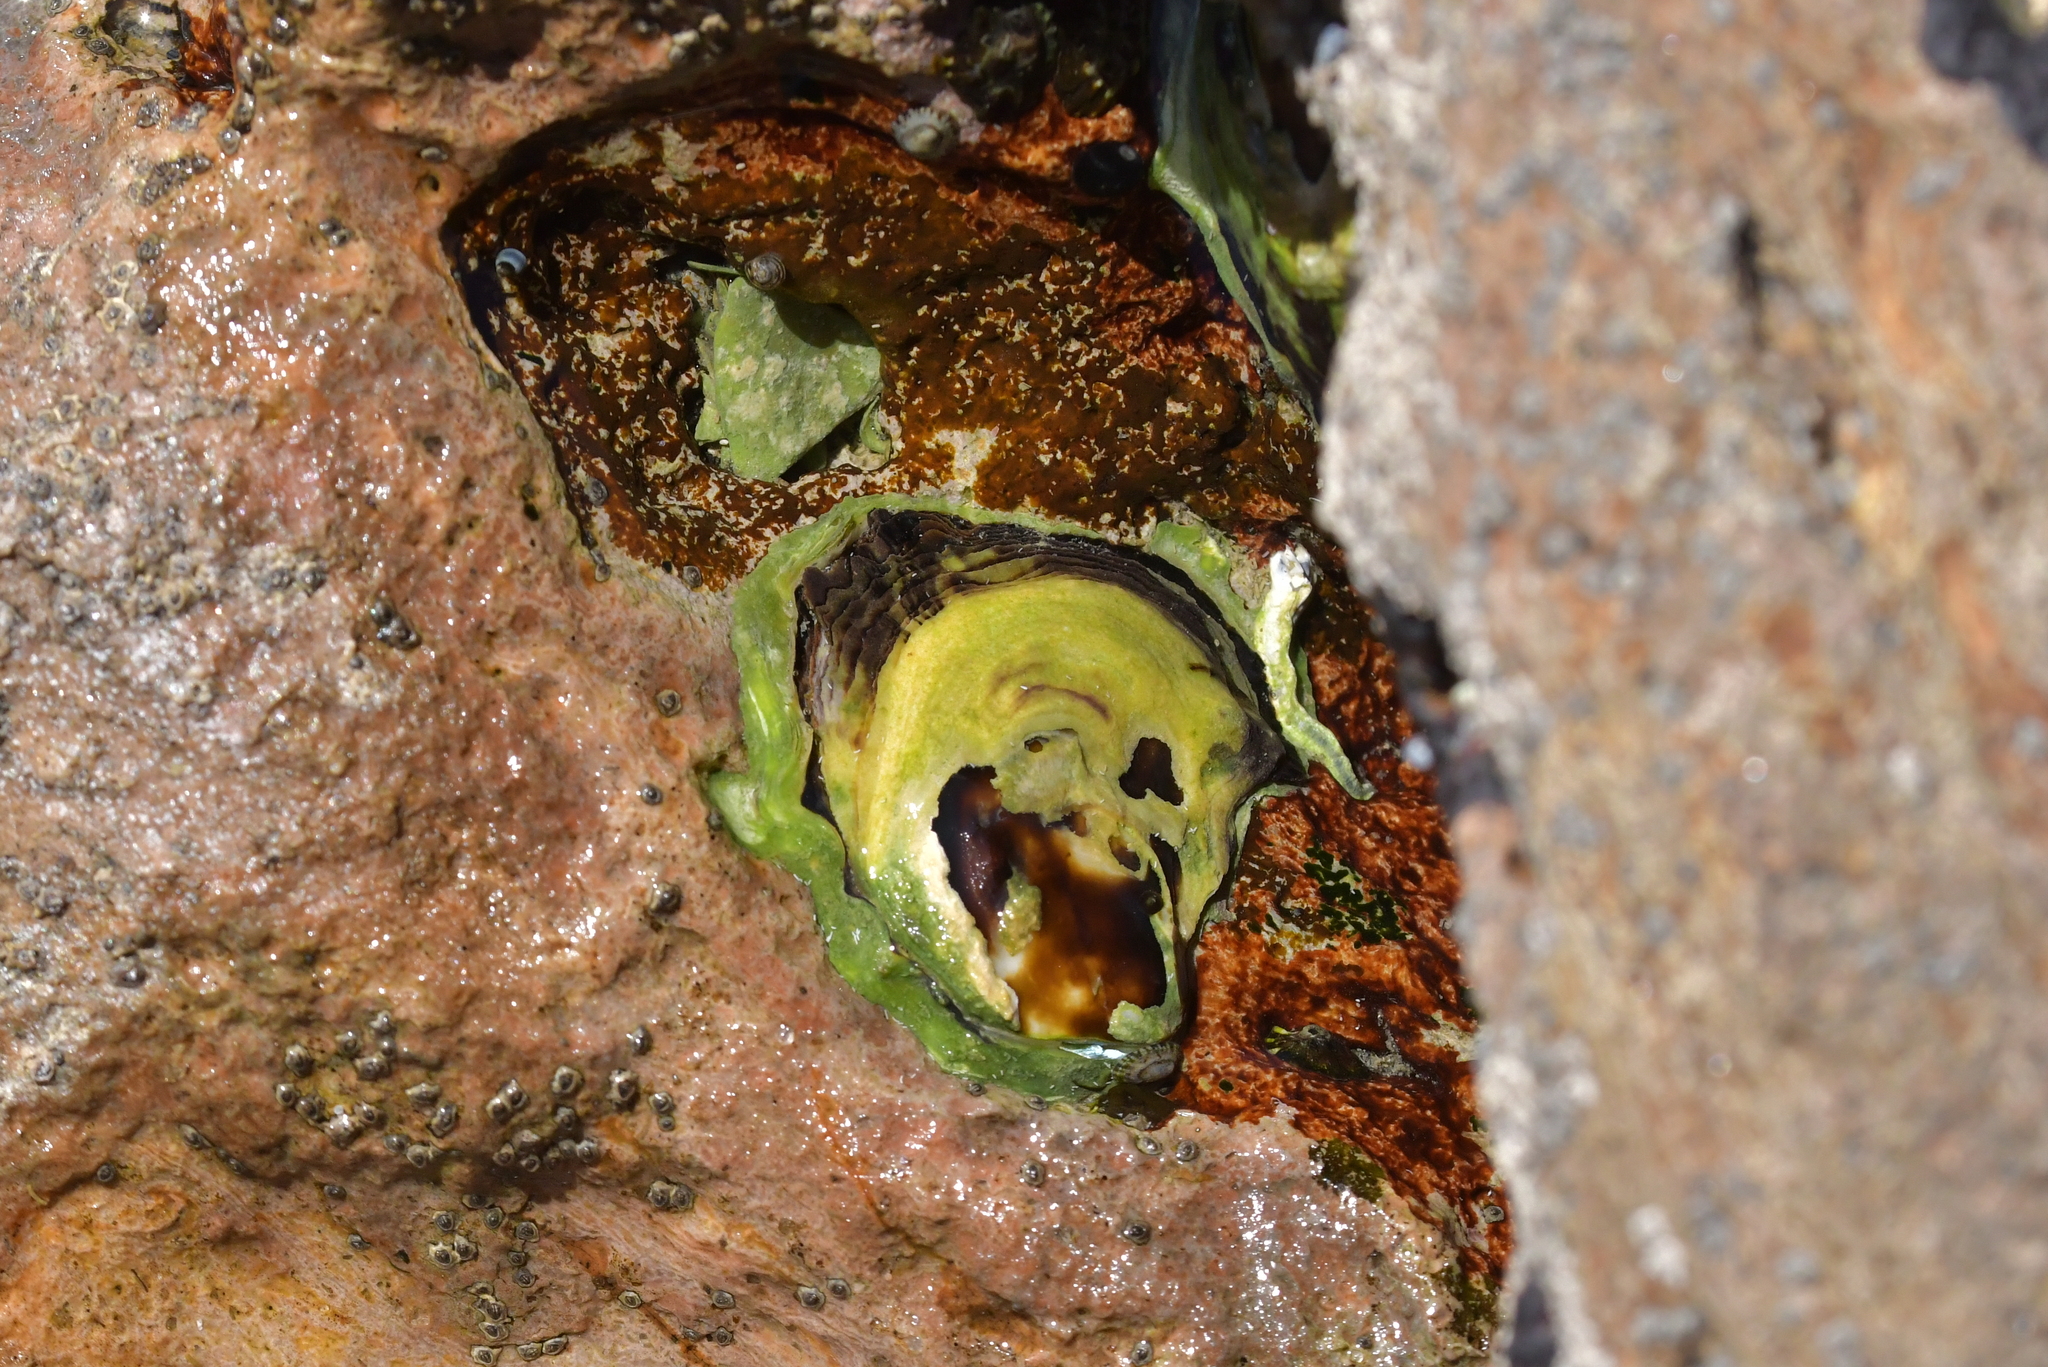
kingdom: Animalia
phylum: Mollusca
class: Bivalvia
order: Ostreida
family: Ostreidae
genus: Saccostrea
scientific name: Saccostrea glomerata
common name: Sydney cupped oyster
